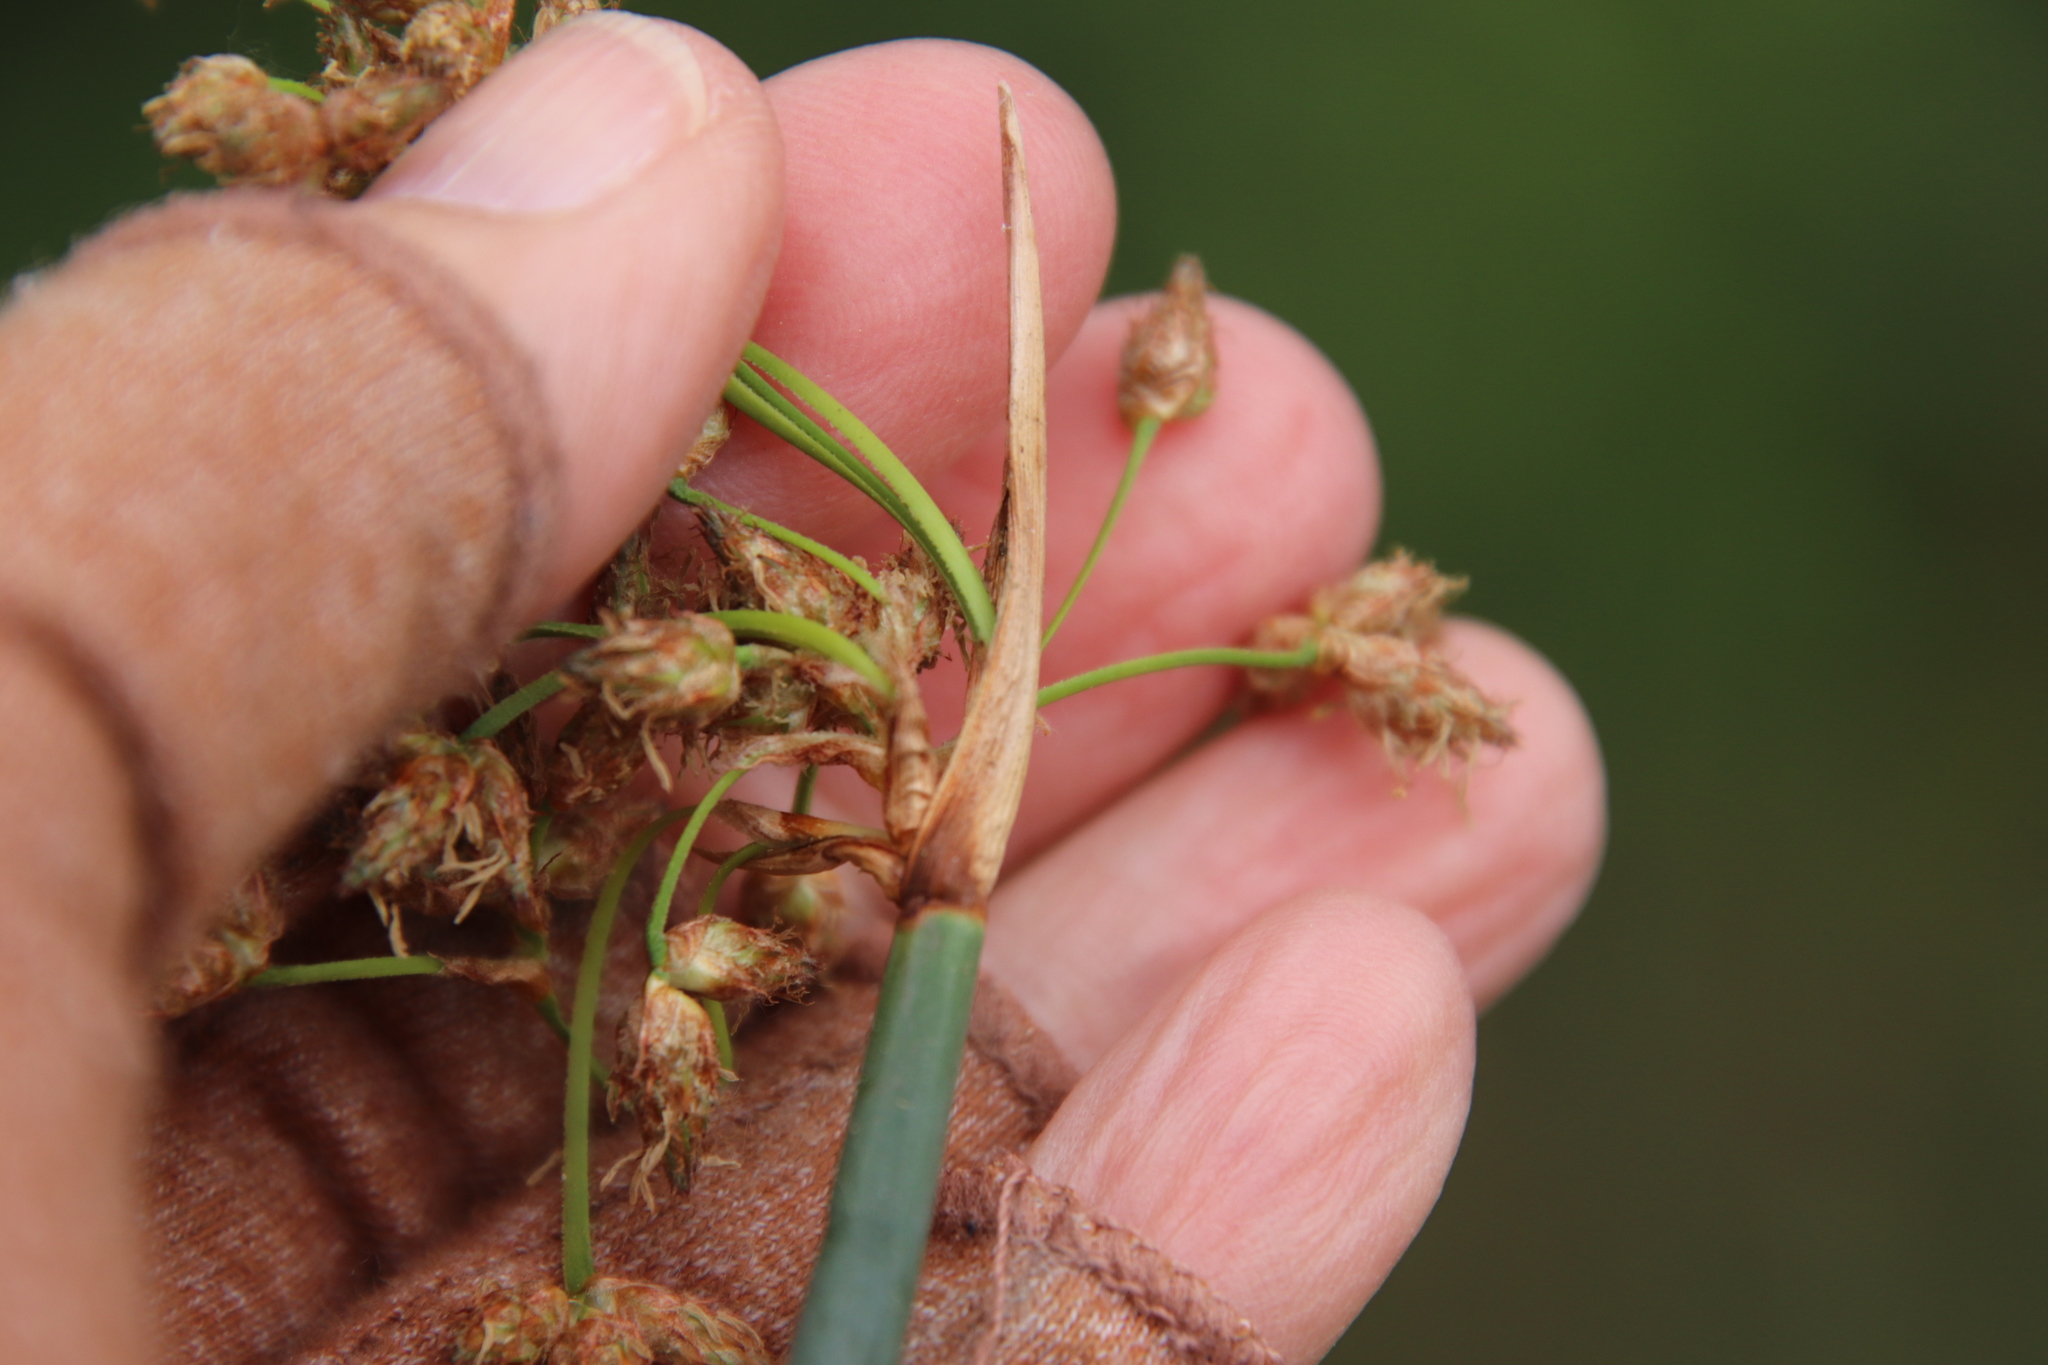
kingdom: Plantae
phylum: Tracheophyta
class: Liliopsida
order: Poales
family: Cyperaceae
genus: Schoenoplectus
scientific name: Schoenoplectus californicus
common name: California bulrush
